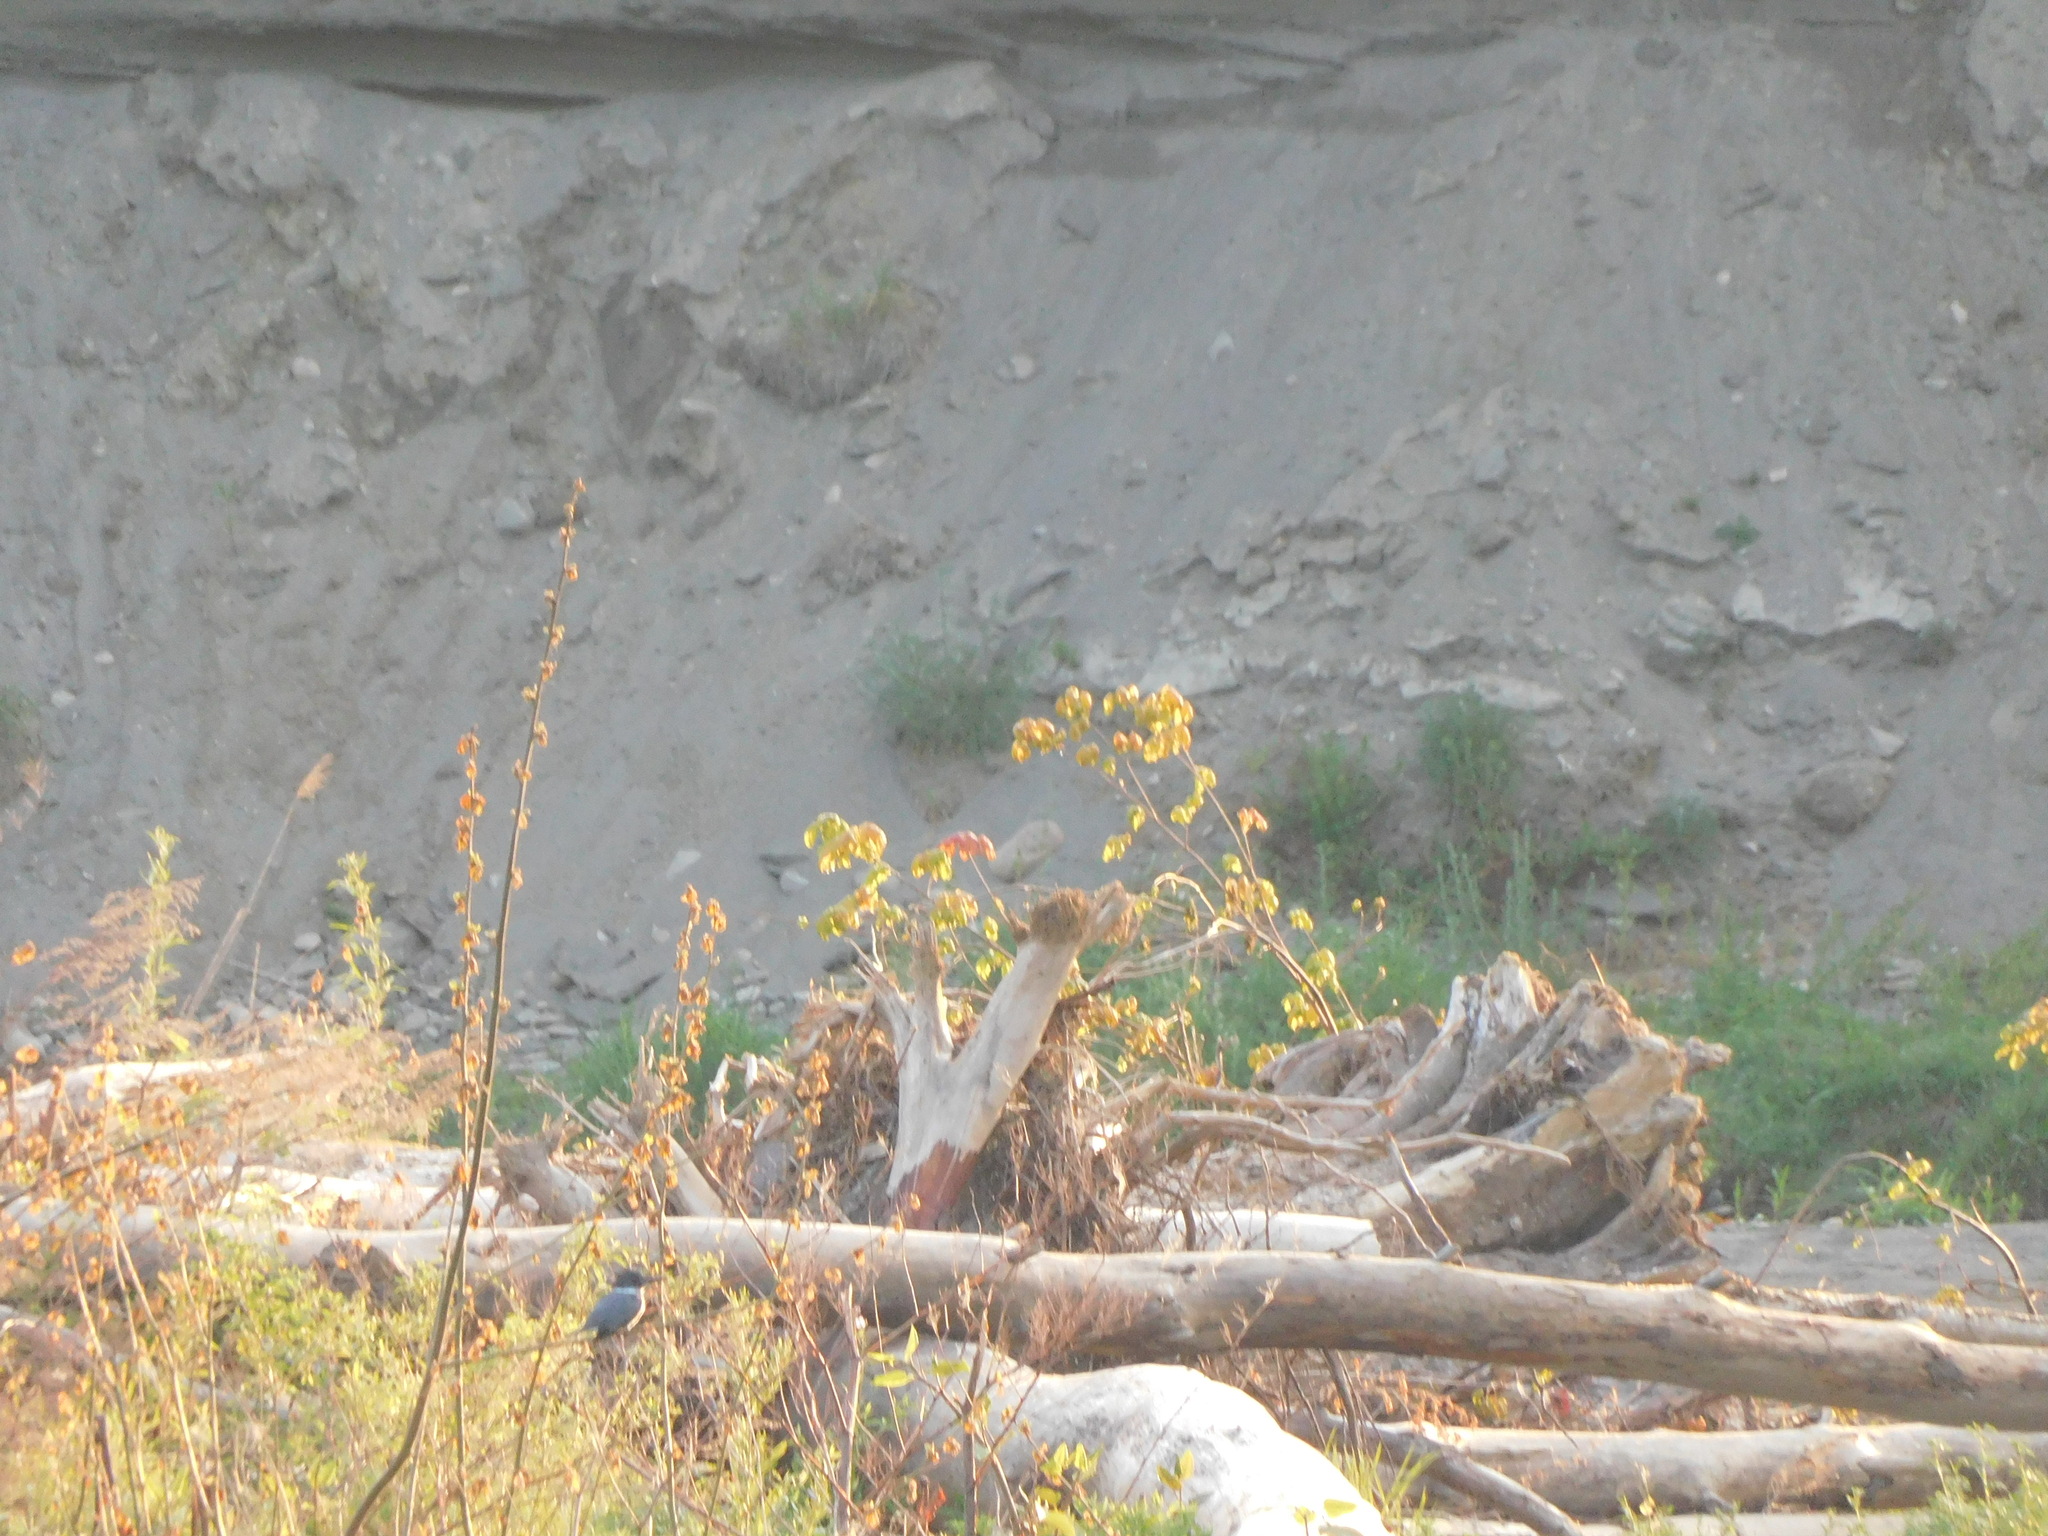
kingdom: Animalia
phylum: Chordata
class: Aves
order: Coraciiformes
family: Alcedinidae
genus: Megaceryle
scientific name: Megaceryle alcyon
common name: Belted kingfisher
